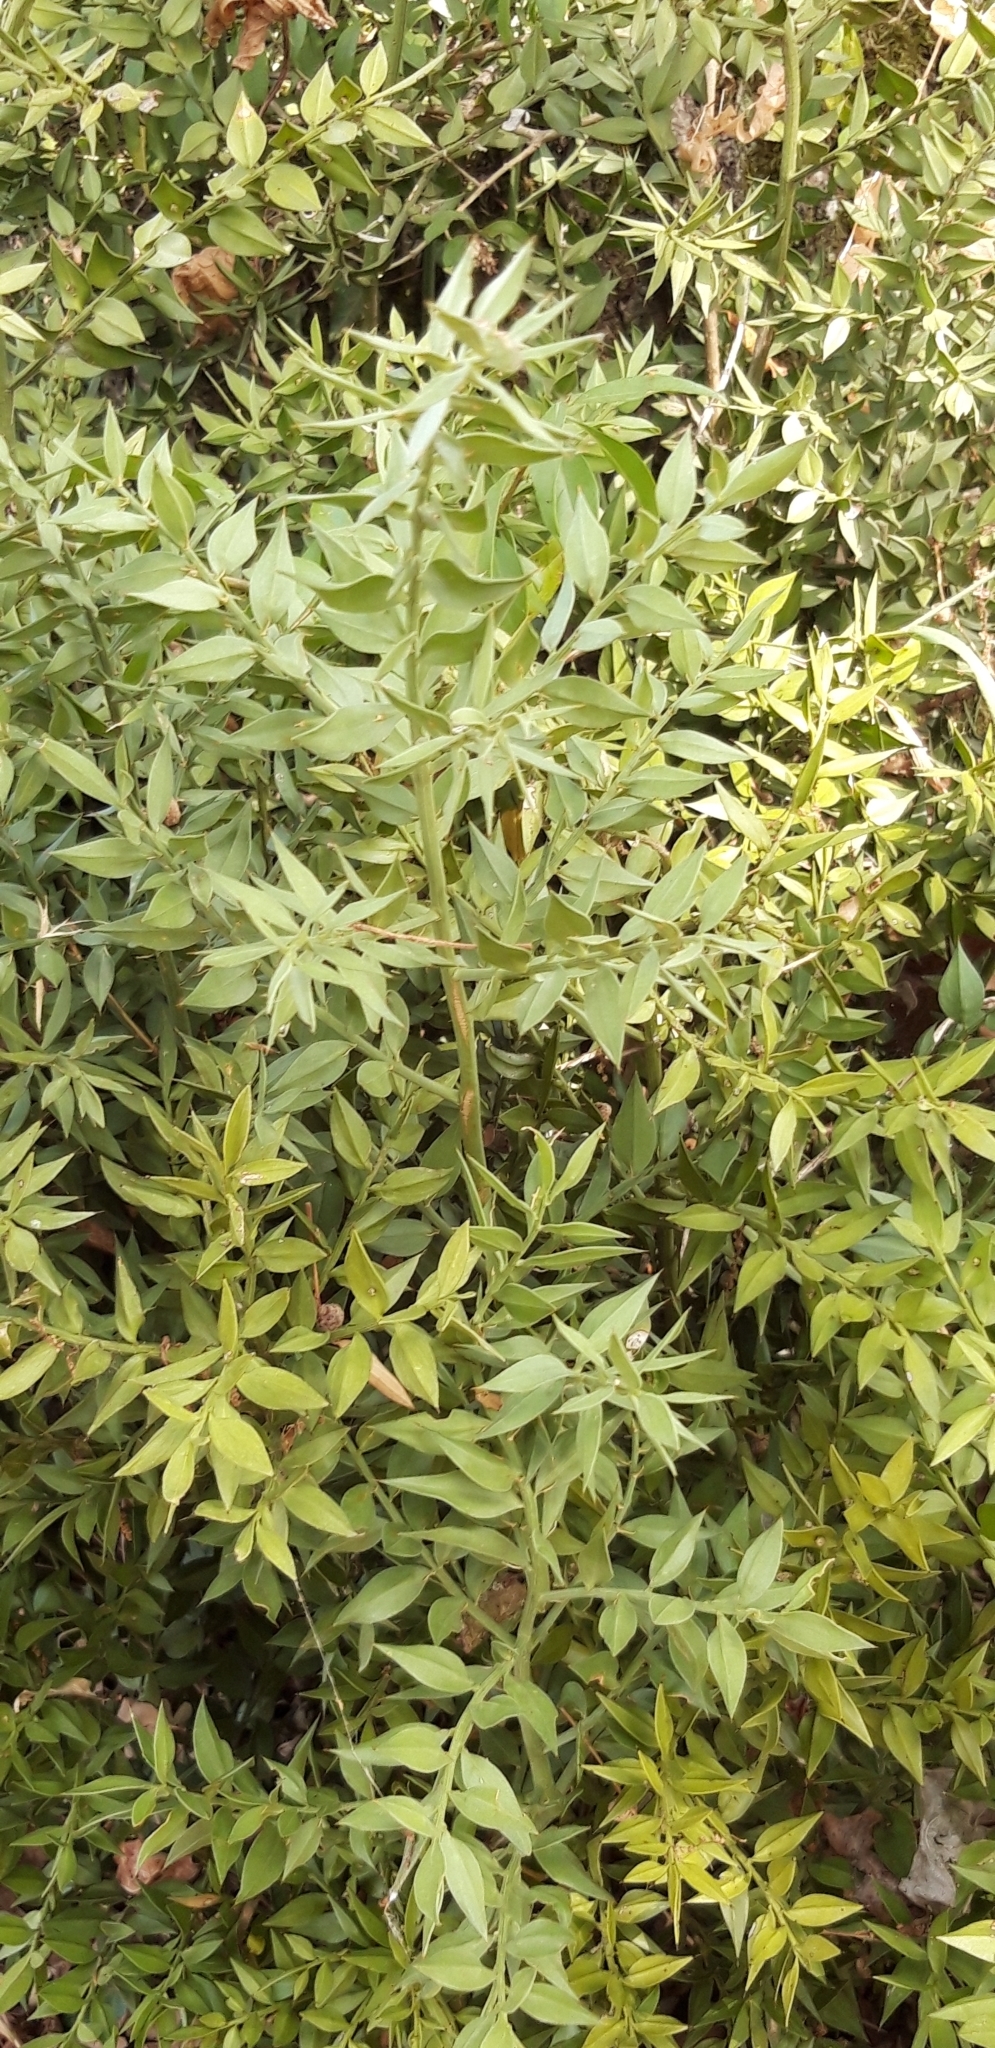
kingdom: Plantae
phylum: Tracheophyta
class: Liliopsida
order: Asparagales
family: Asparagaceae
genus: Ruscus
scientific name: Ruscus aculeatus
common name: Butcher's-broom
